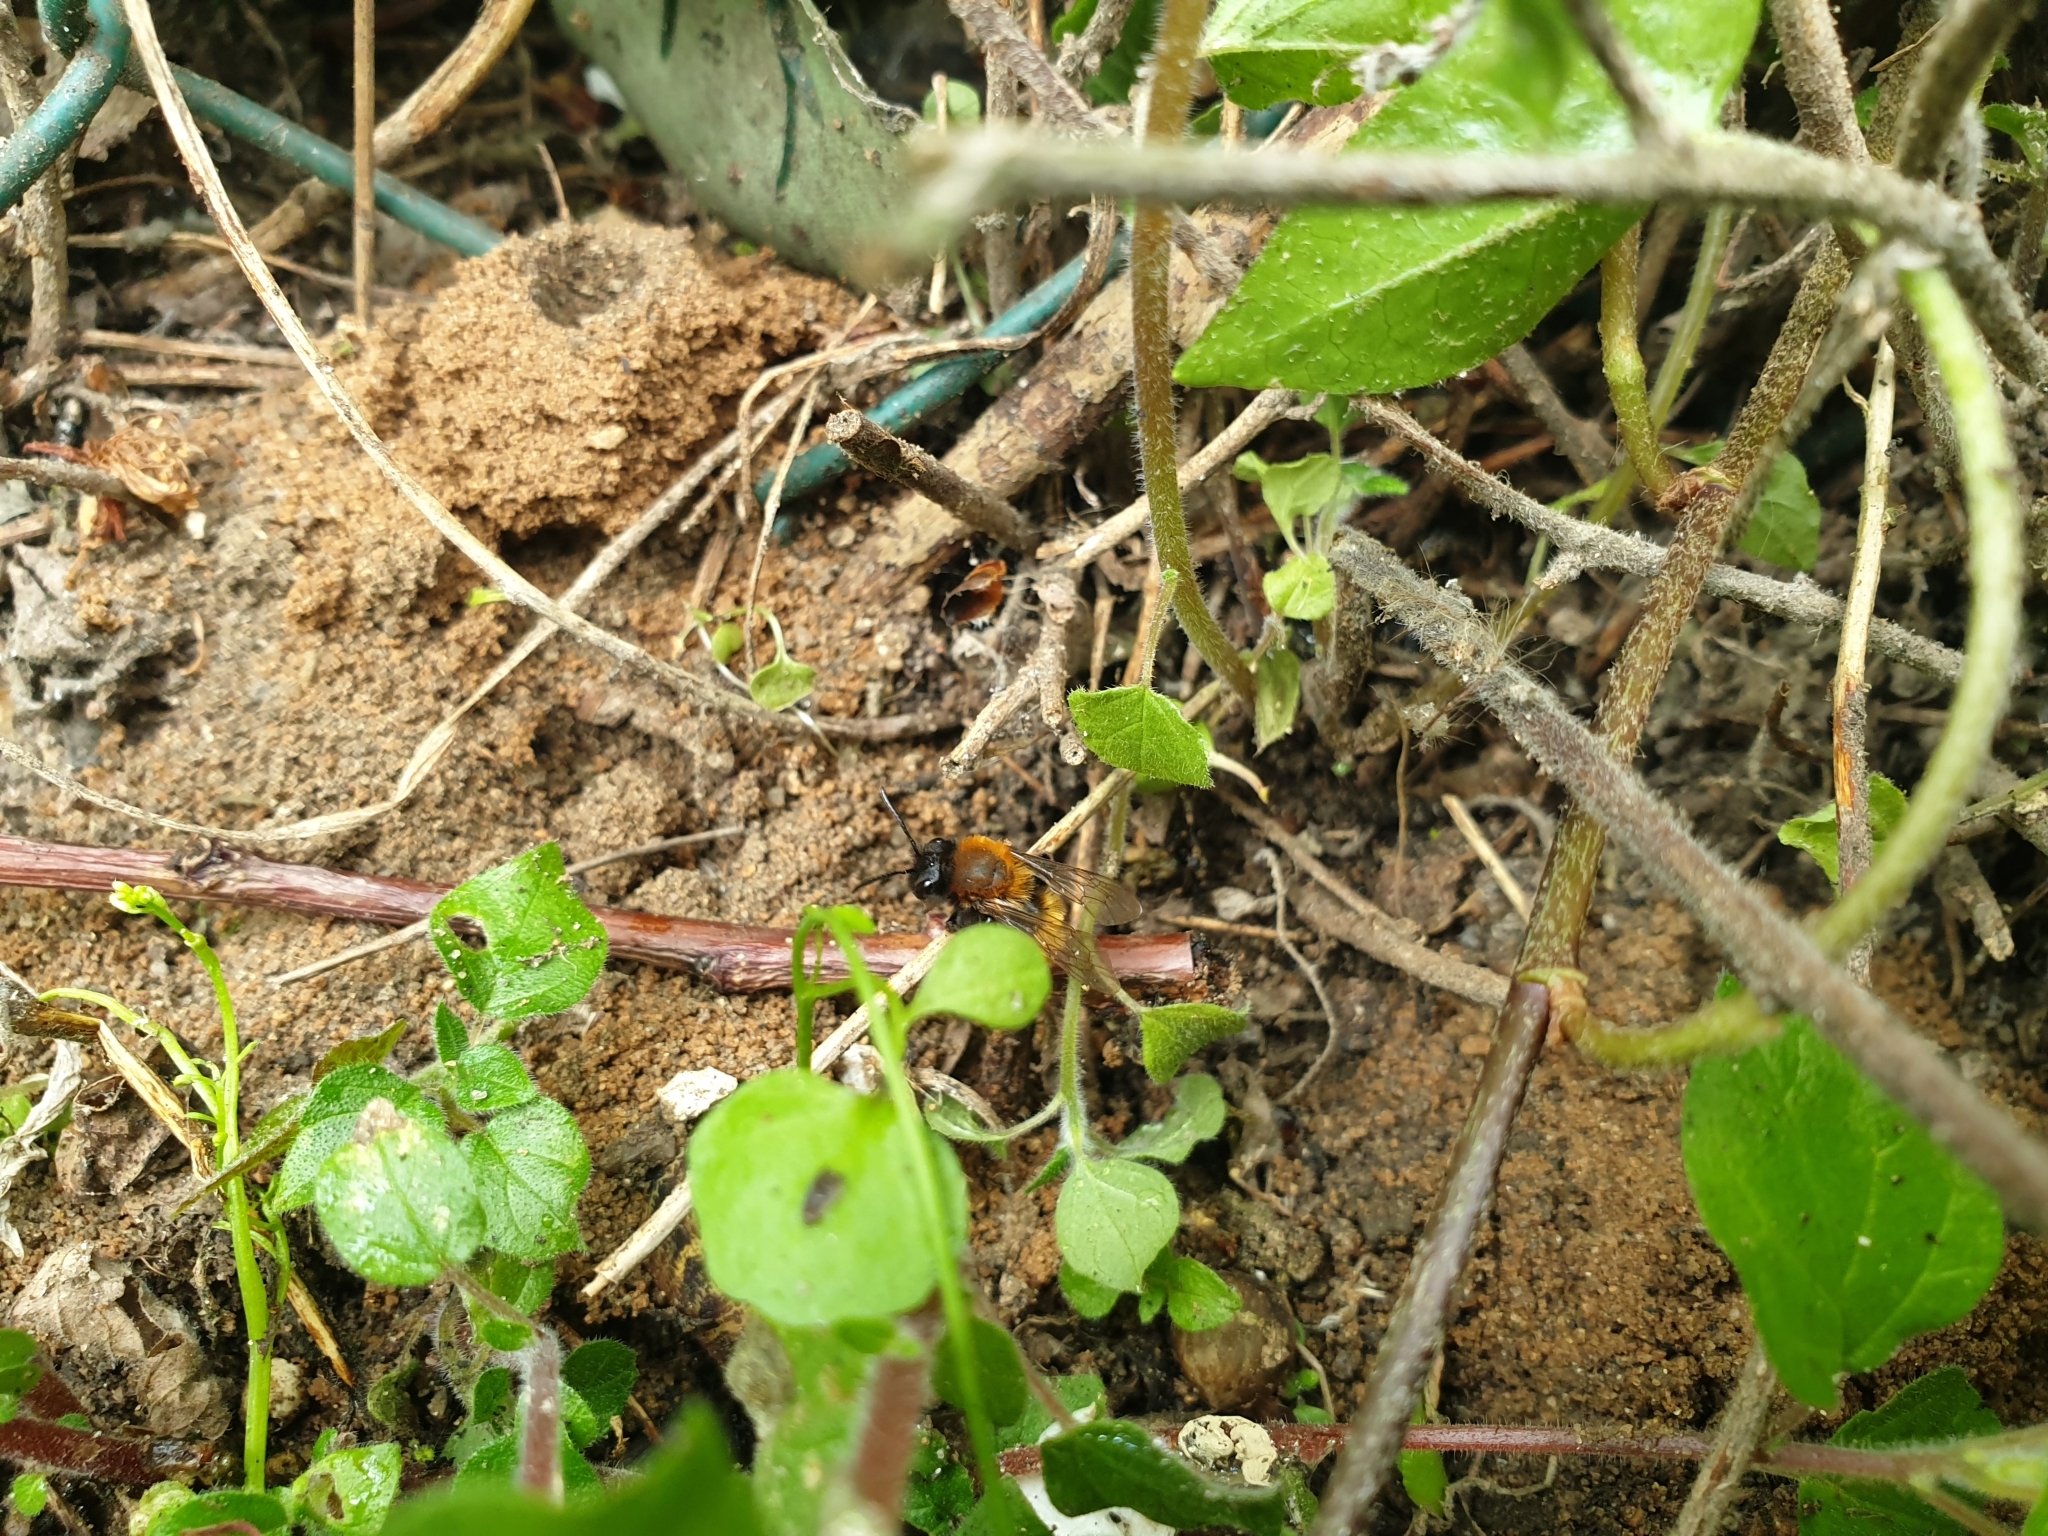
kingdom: Animalia
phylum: Arthropoda
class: Insecta
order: Hymenoptera
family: Andrenidae
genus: Andrena
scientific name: Andrena fulva
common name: Tawny mining bee
